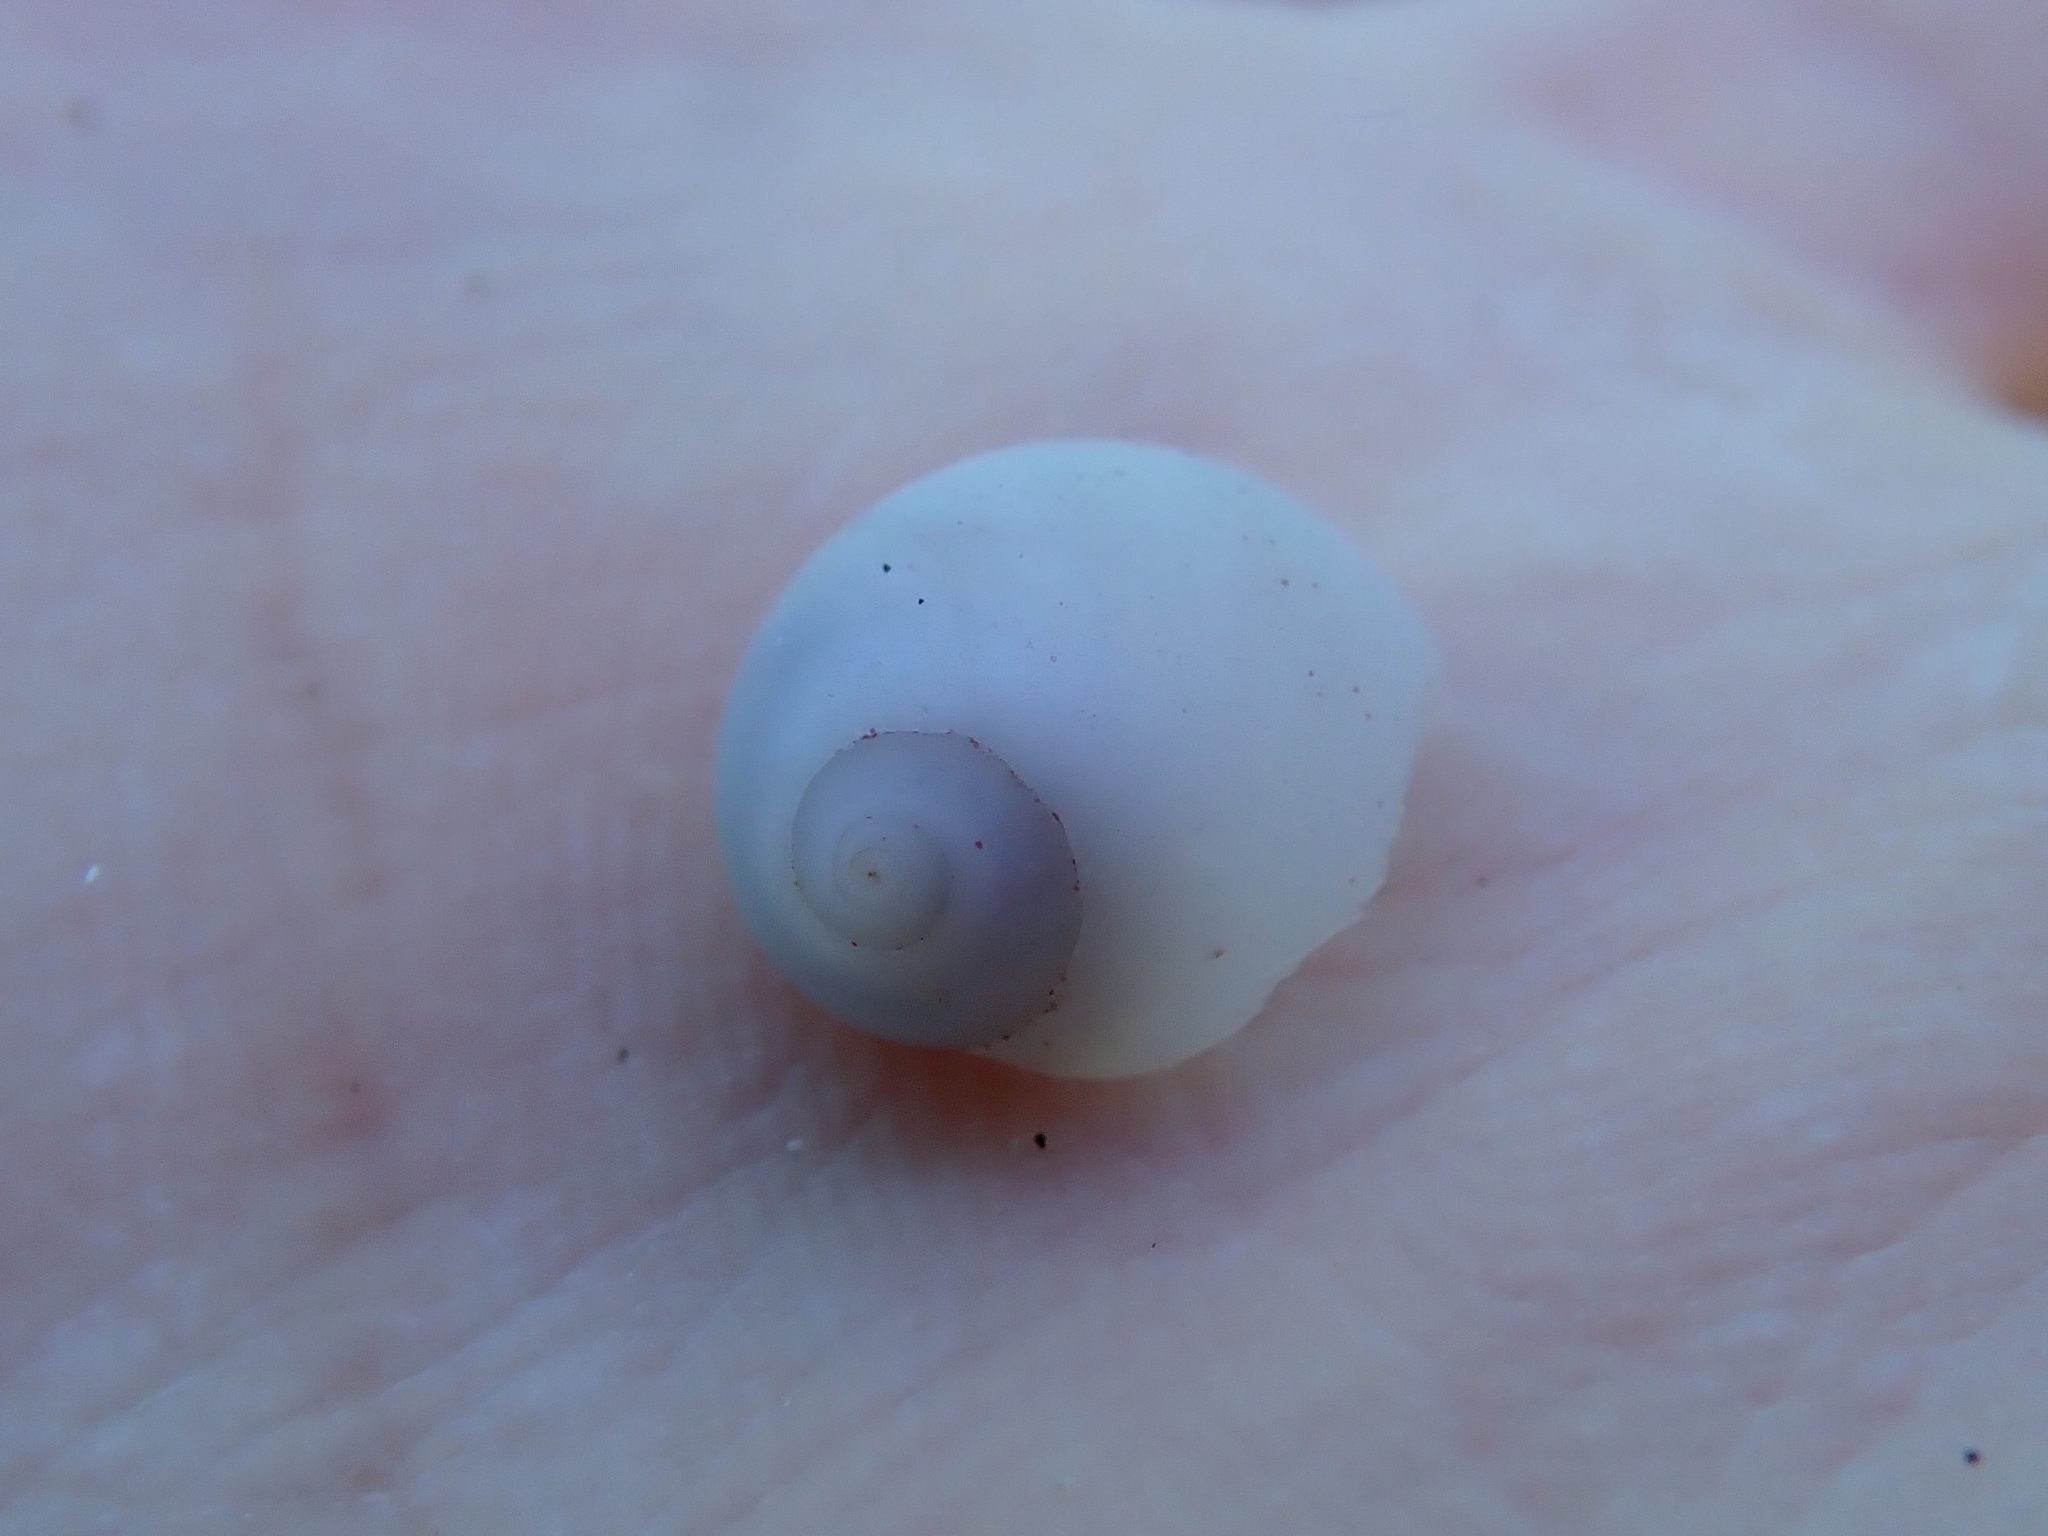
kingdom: Animalia
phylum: Mollusca
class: Gastropoda
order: Littorinimorpha
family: Naticidae
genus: Polinices
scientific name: Polinices lacteus
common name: Milk moonsnail
